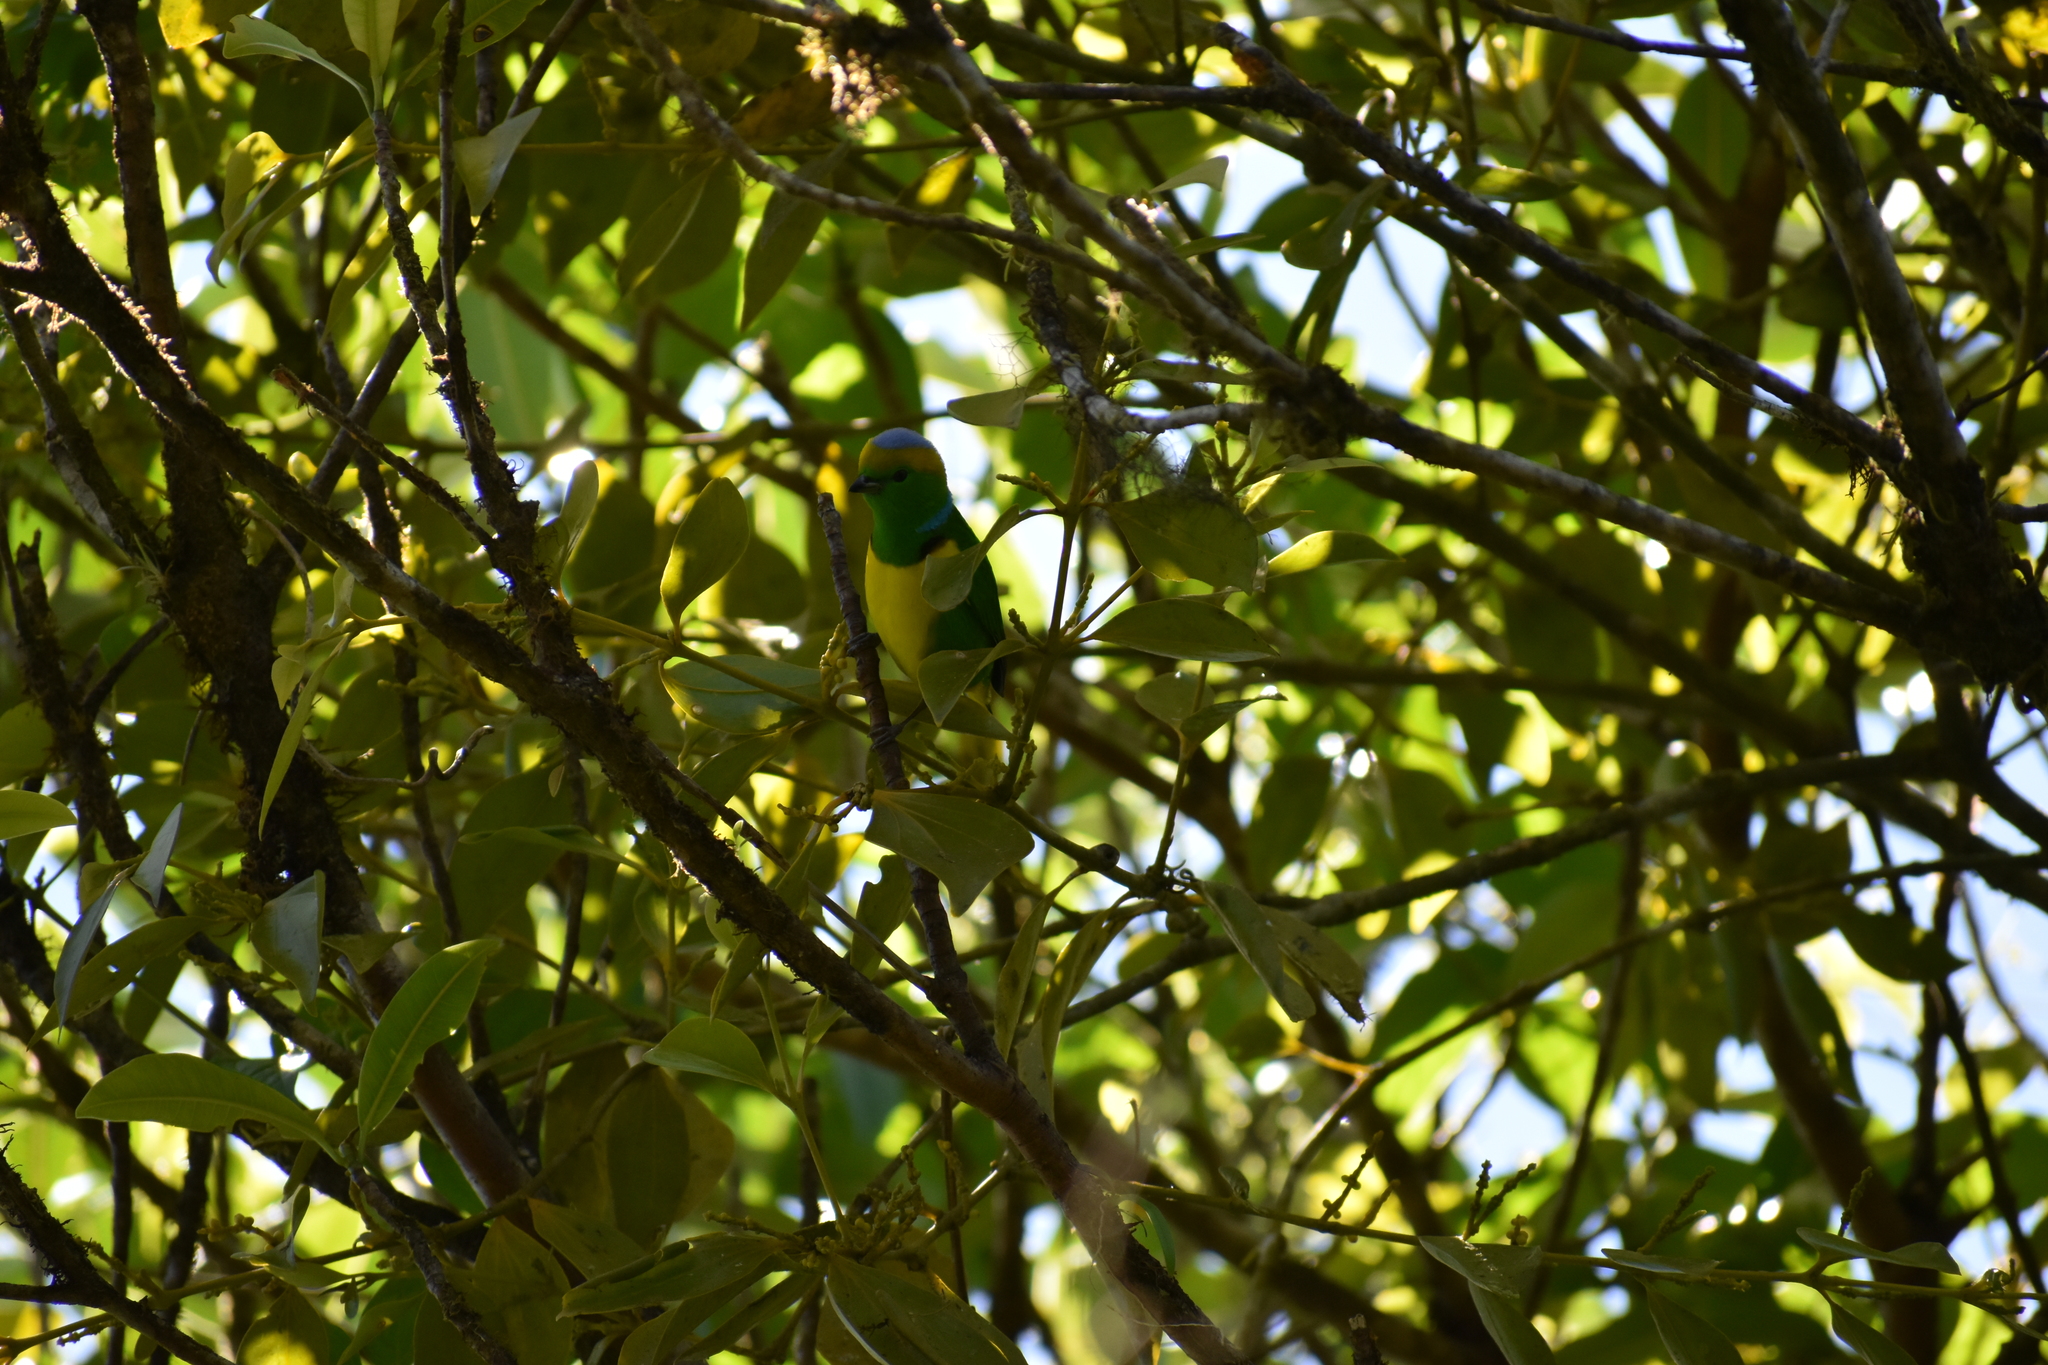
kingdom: Animalia
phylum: Chordata
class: Aves
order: Passeriformes
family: Fringillidae
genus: Chlorophonia
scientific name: Chlorophonia callophrys
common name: Golden-browed chlorophonia
